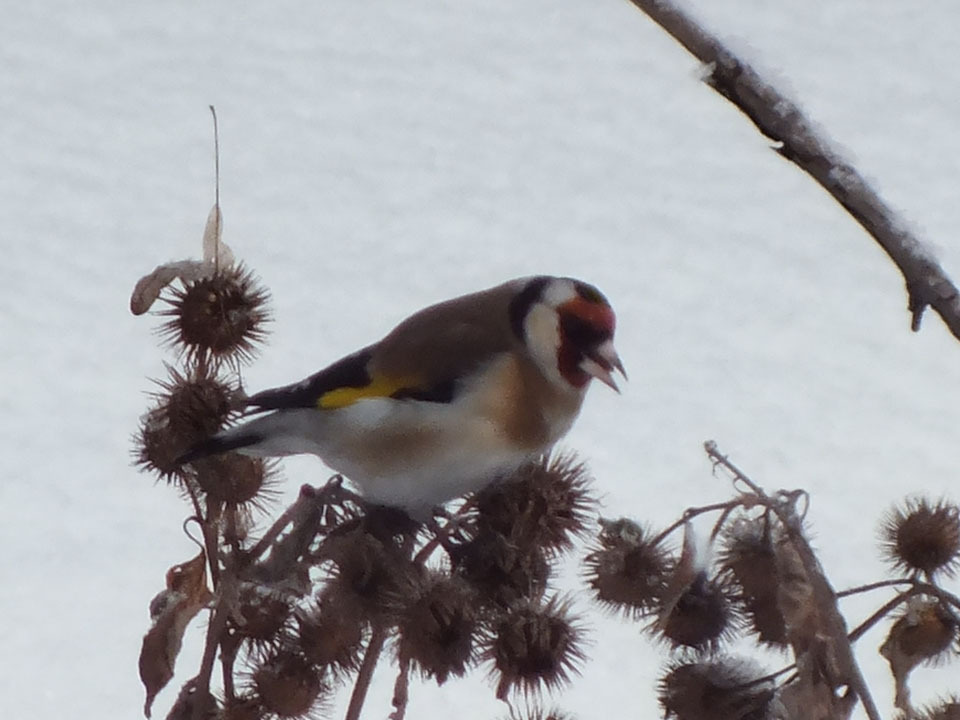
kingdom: Animalia
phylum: Chordata
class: Aves
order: Passeriformes
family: Fringillidae
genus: Carduelis
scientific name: Carduelis carduelis
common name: European goldfinch
